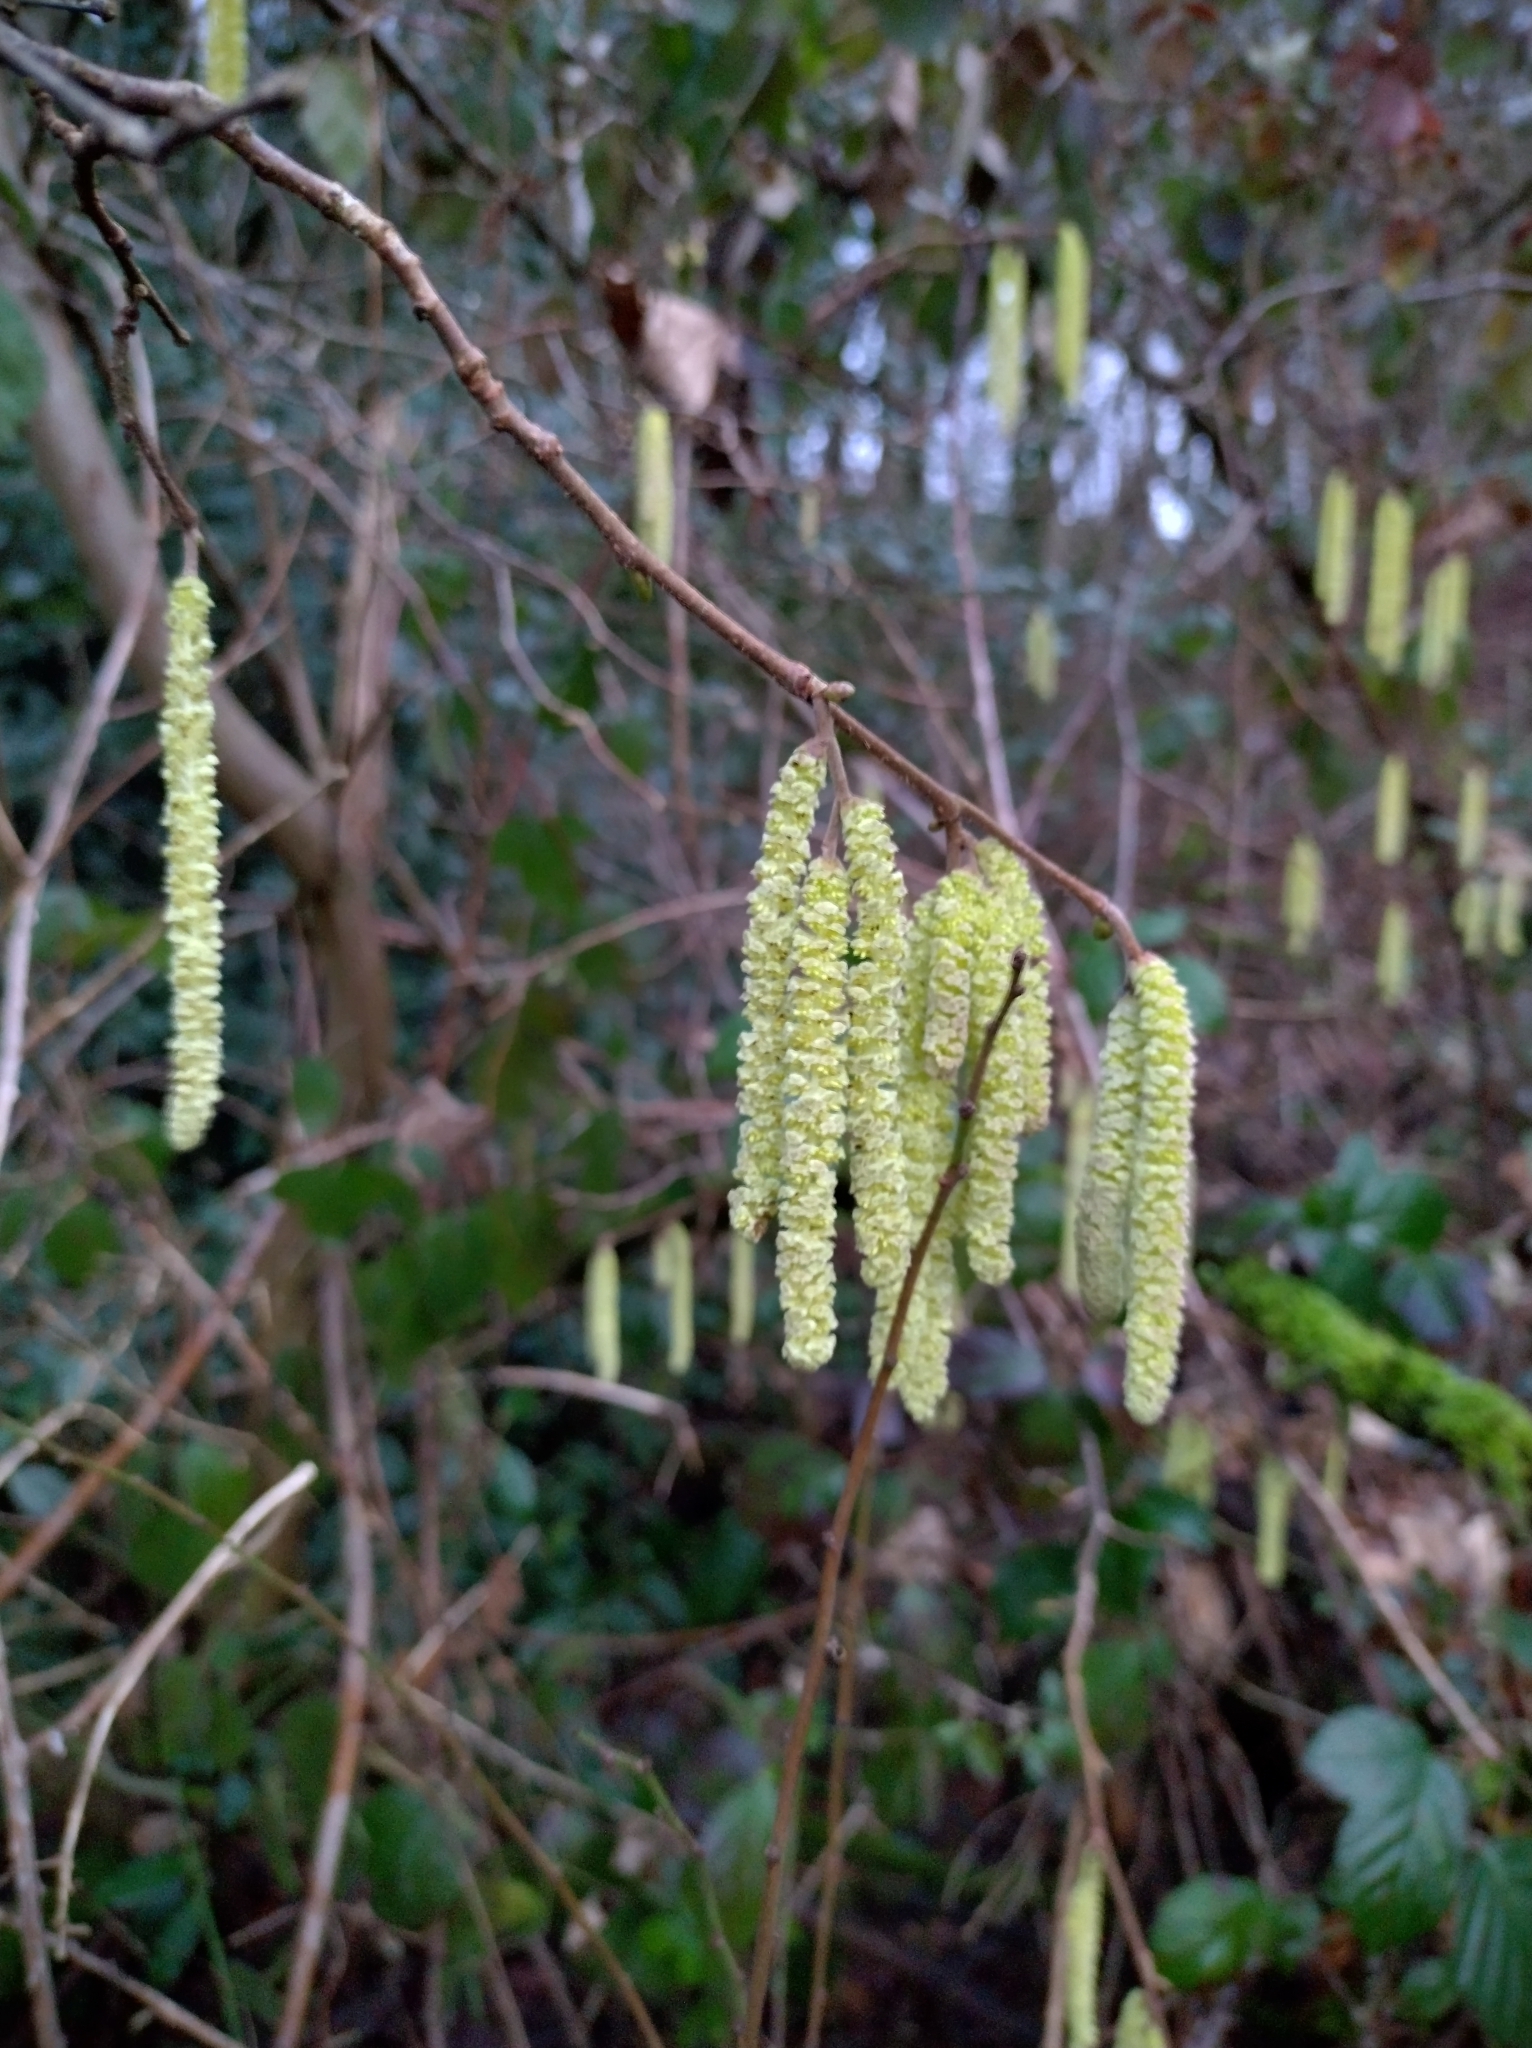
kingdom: Plantae
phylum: Tracheophyta
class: Magnoliopsida
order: Fagales
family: Betulaceae
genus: Corylus
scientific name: Corylus avellana
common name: European hazel
